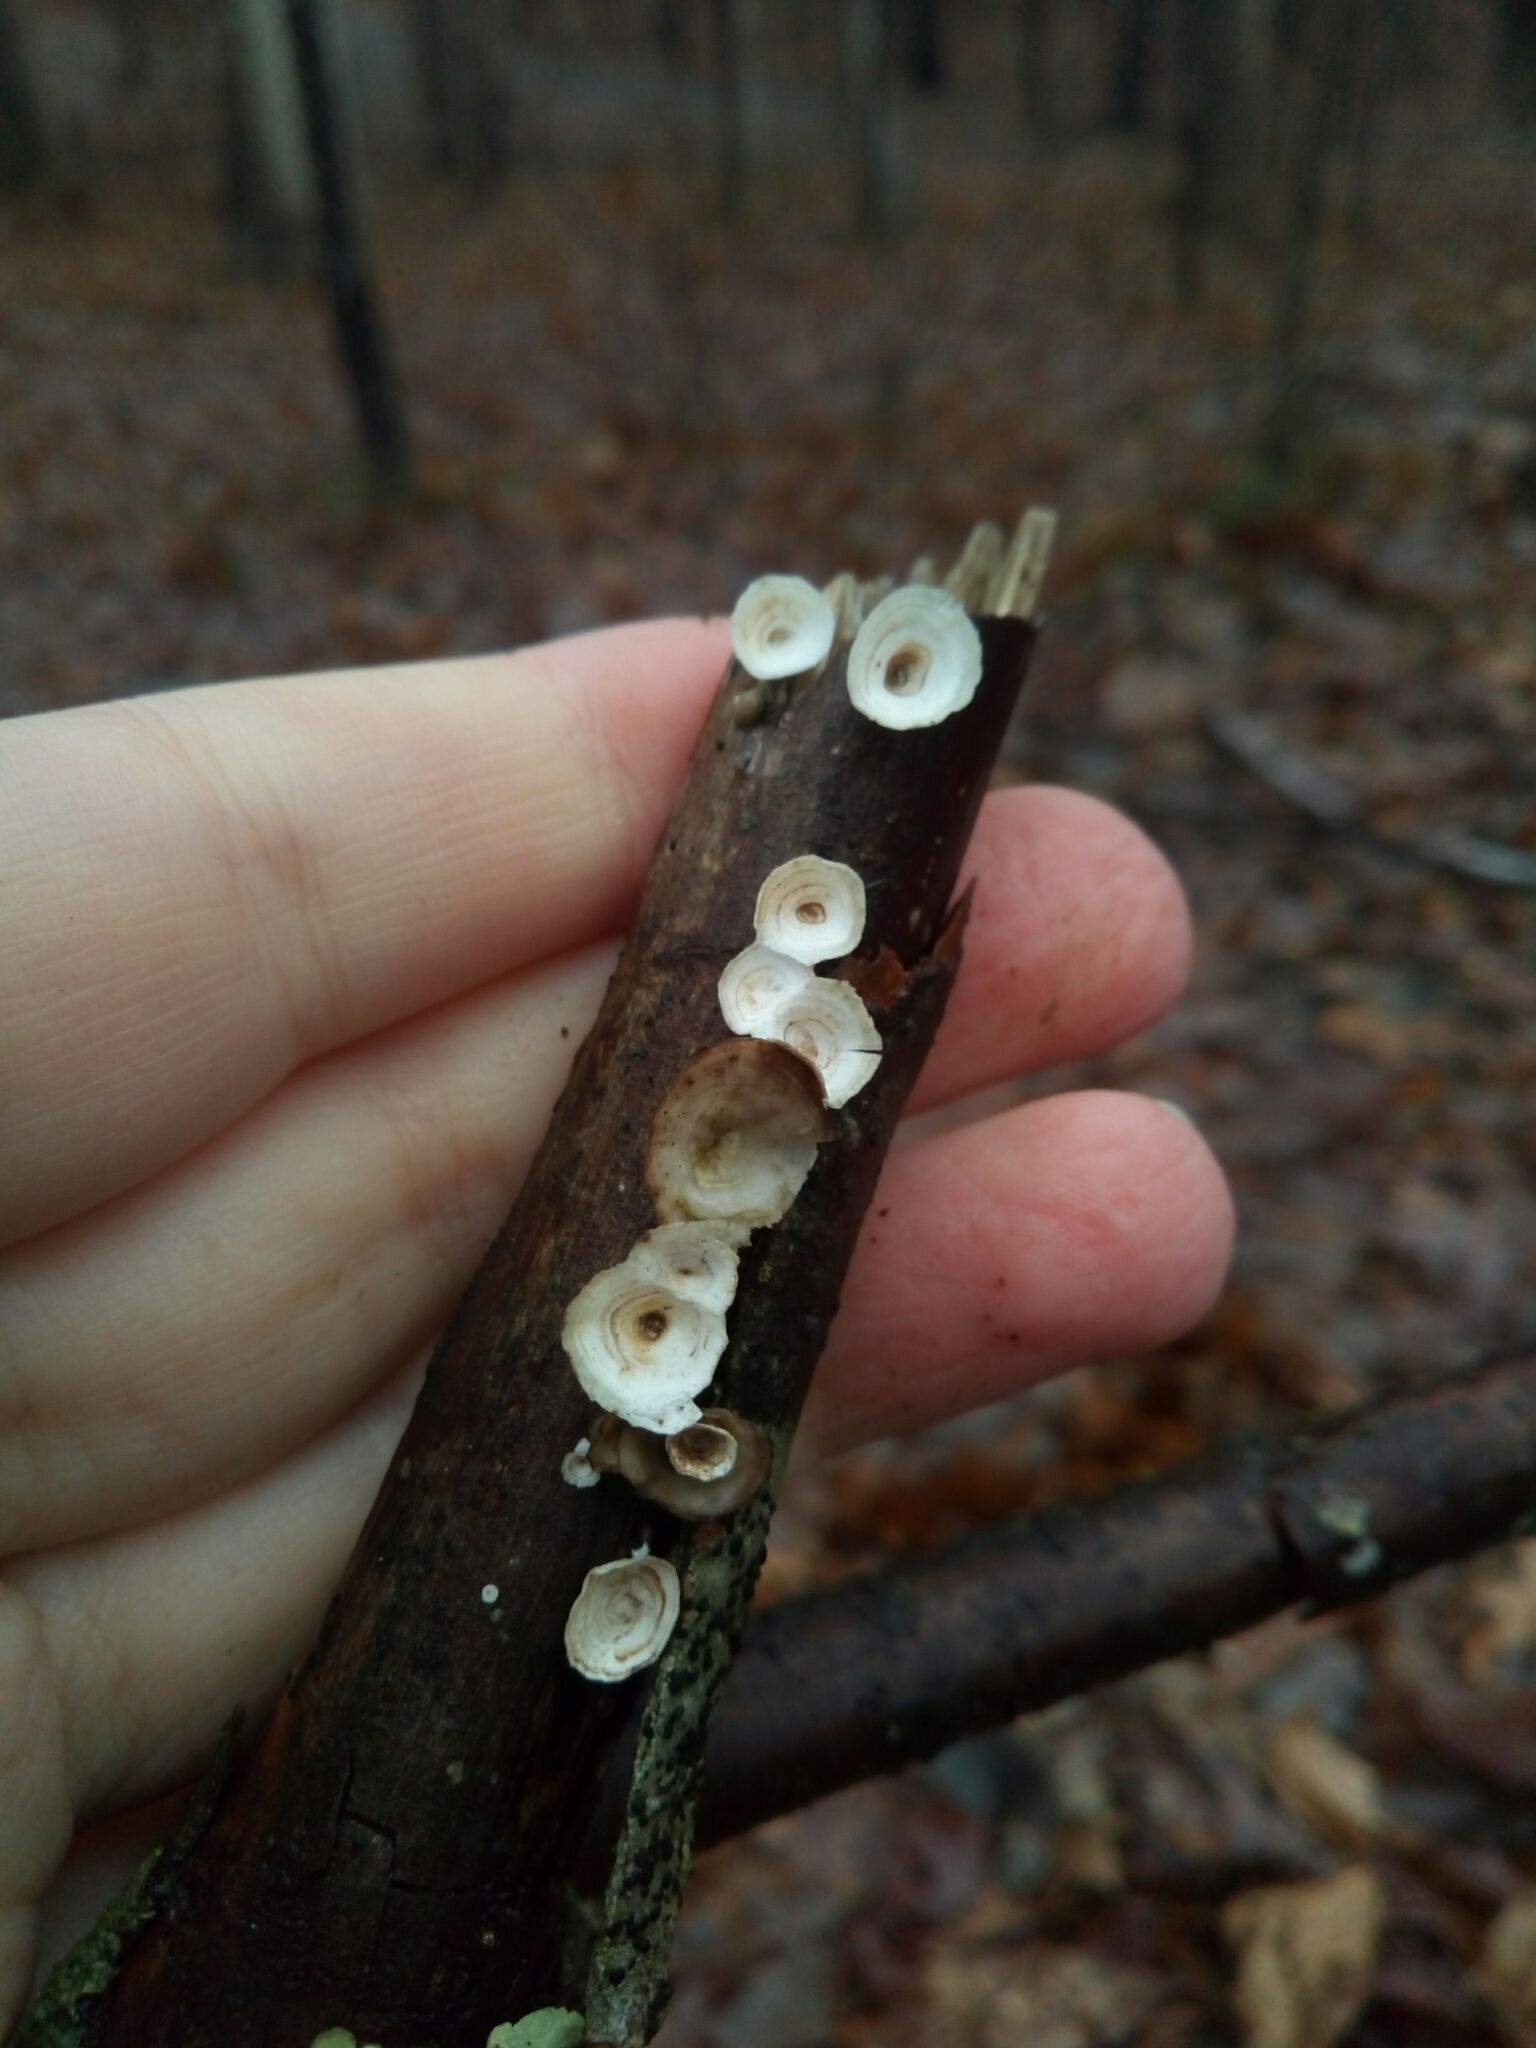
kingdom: Fungi
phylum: Basidiomycota
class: Agaricomycetes
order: Polyporales
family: Polyporaceae
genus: Poronidulus
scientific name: Poronidulus conchifer
